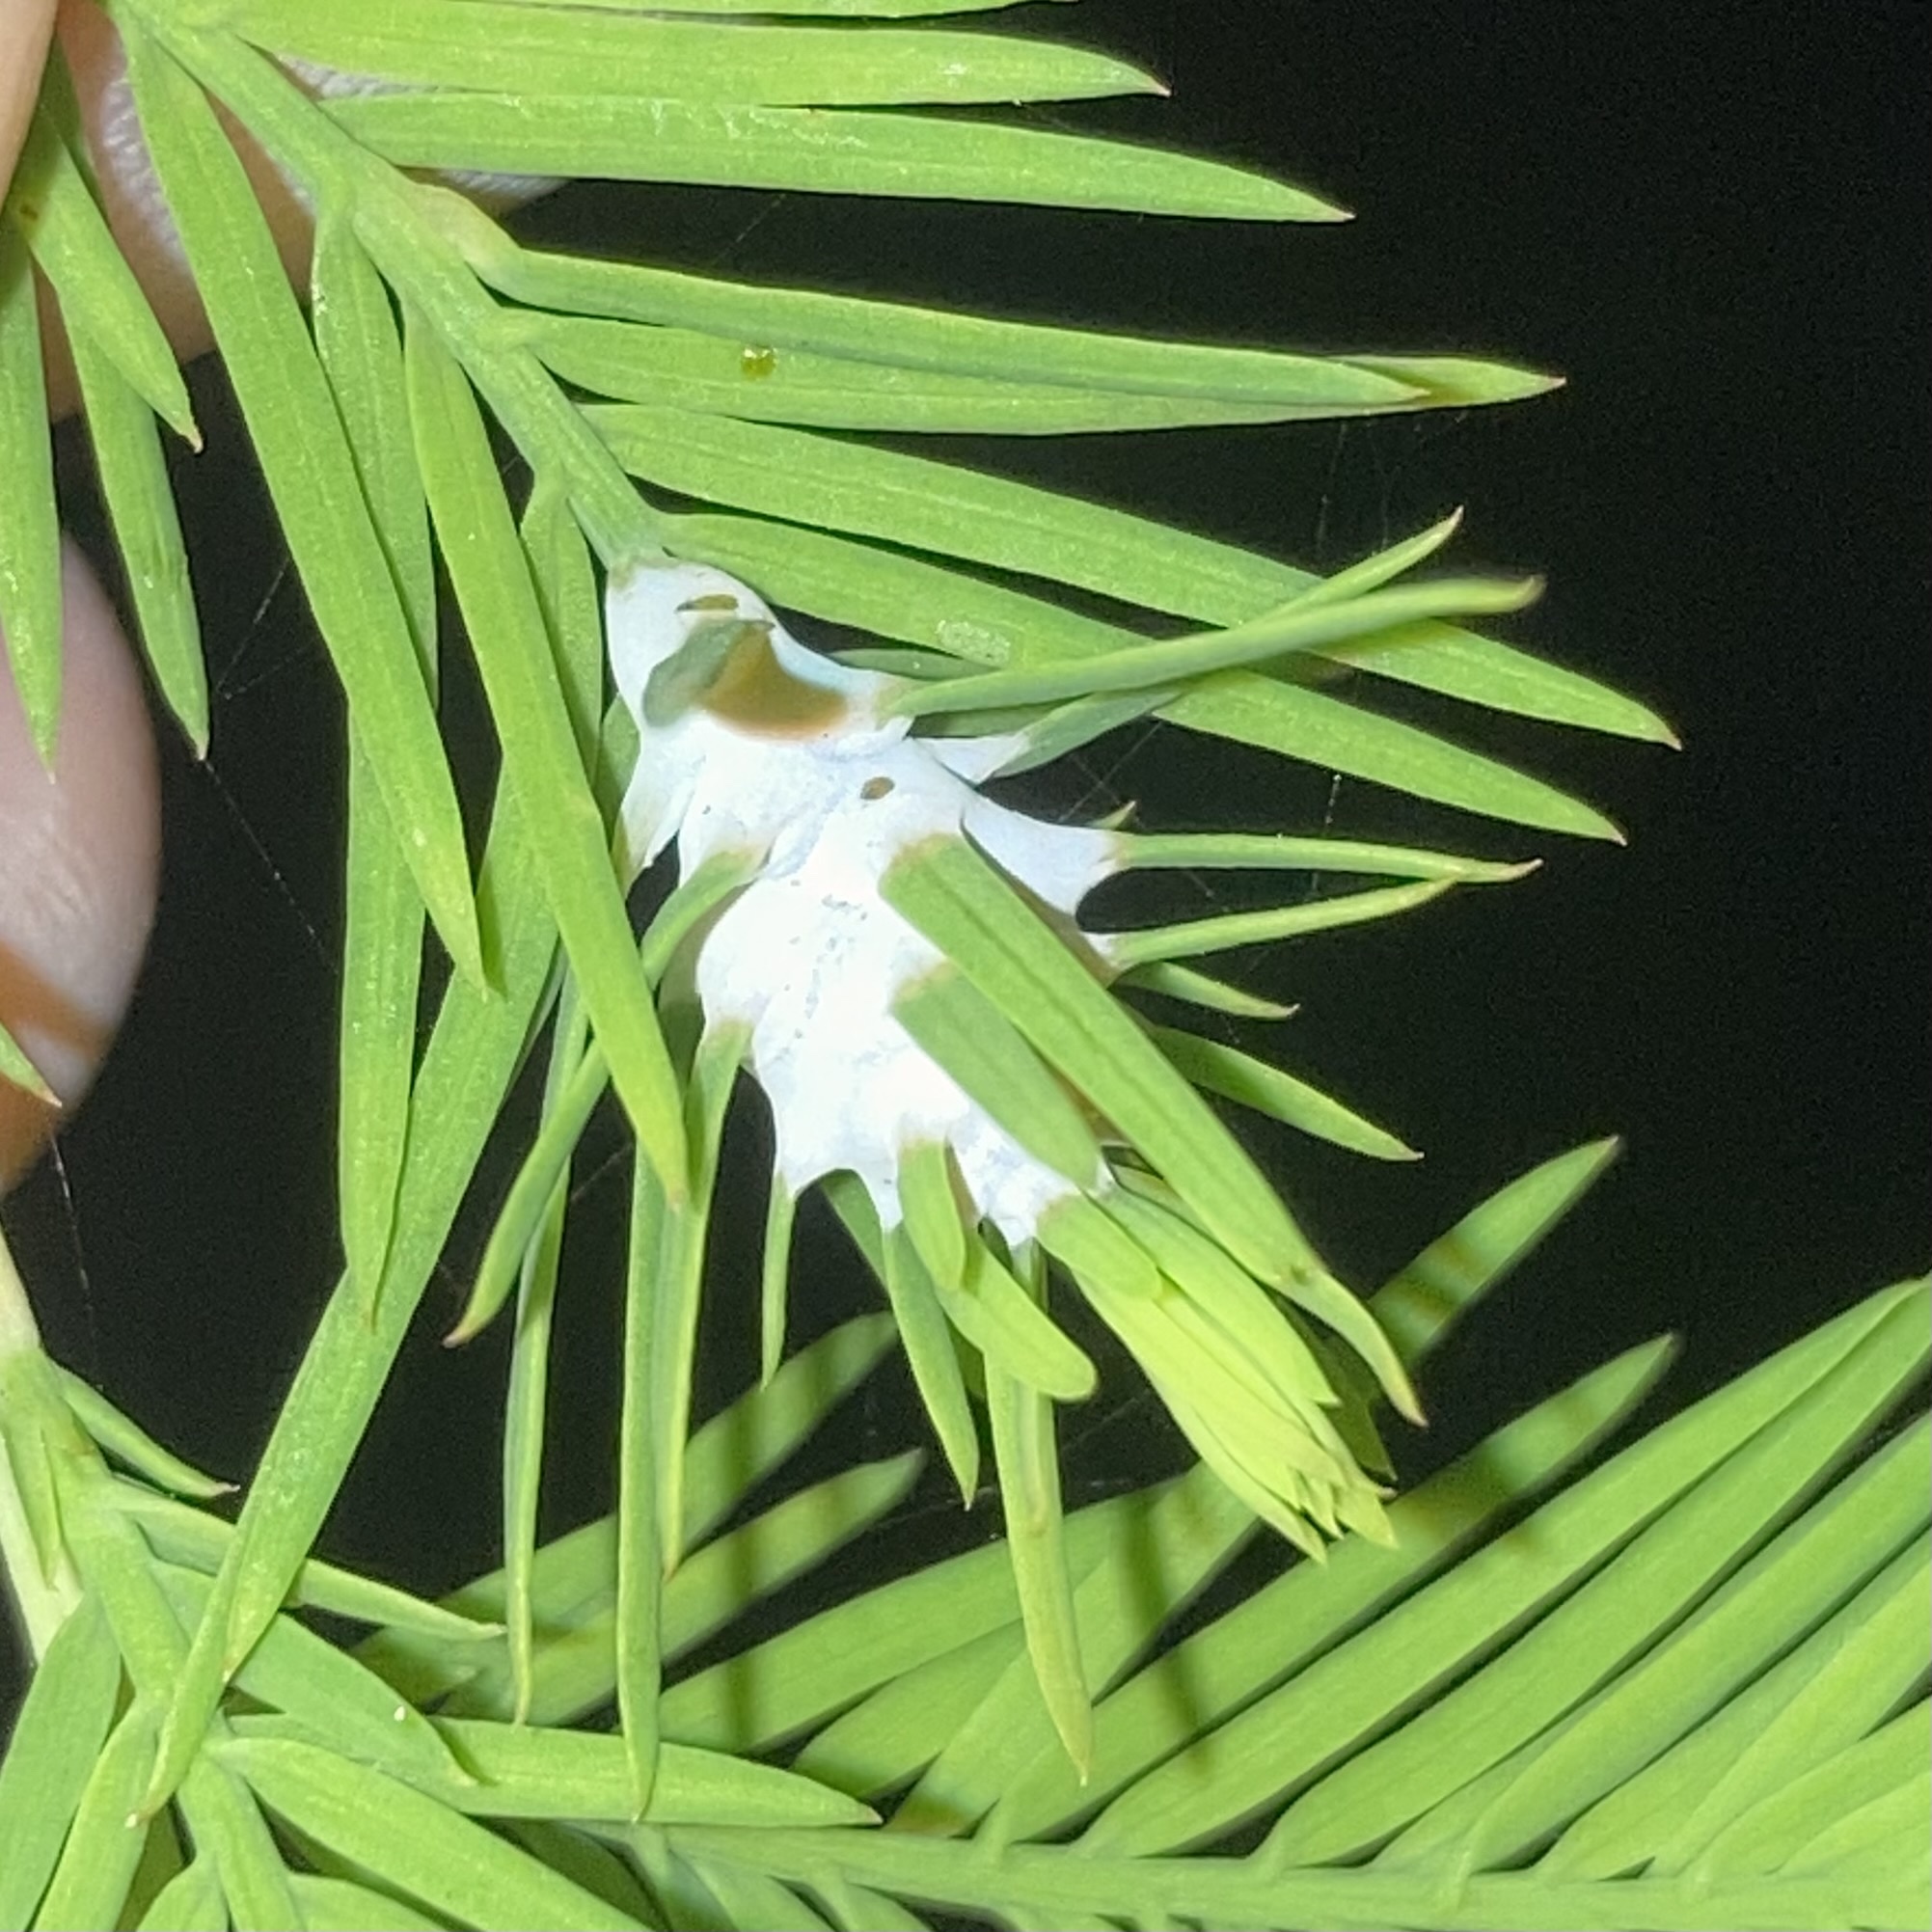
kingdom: Animalia
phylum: Arthropoda
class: Insecta
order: Diptera
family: Cecidomyiidae
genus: Taxodiomyia
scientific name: Taxodiomyia cupressiananassa
